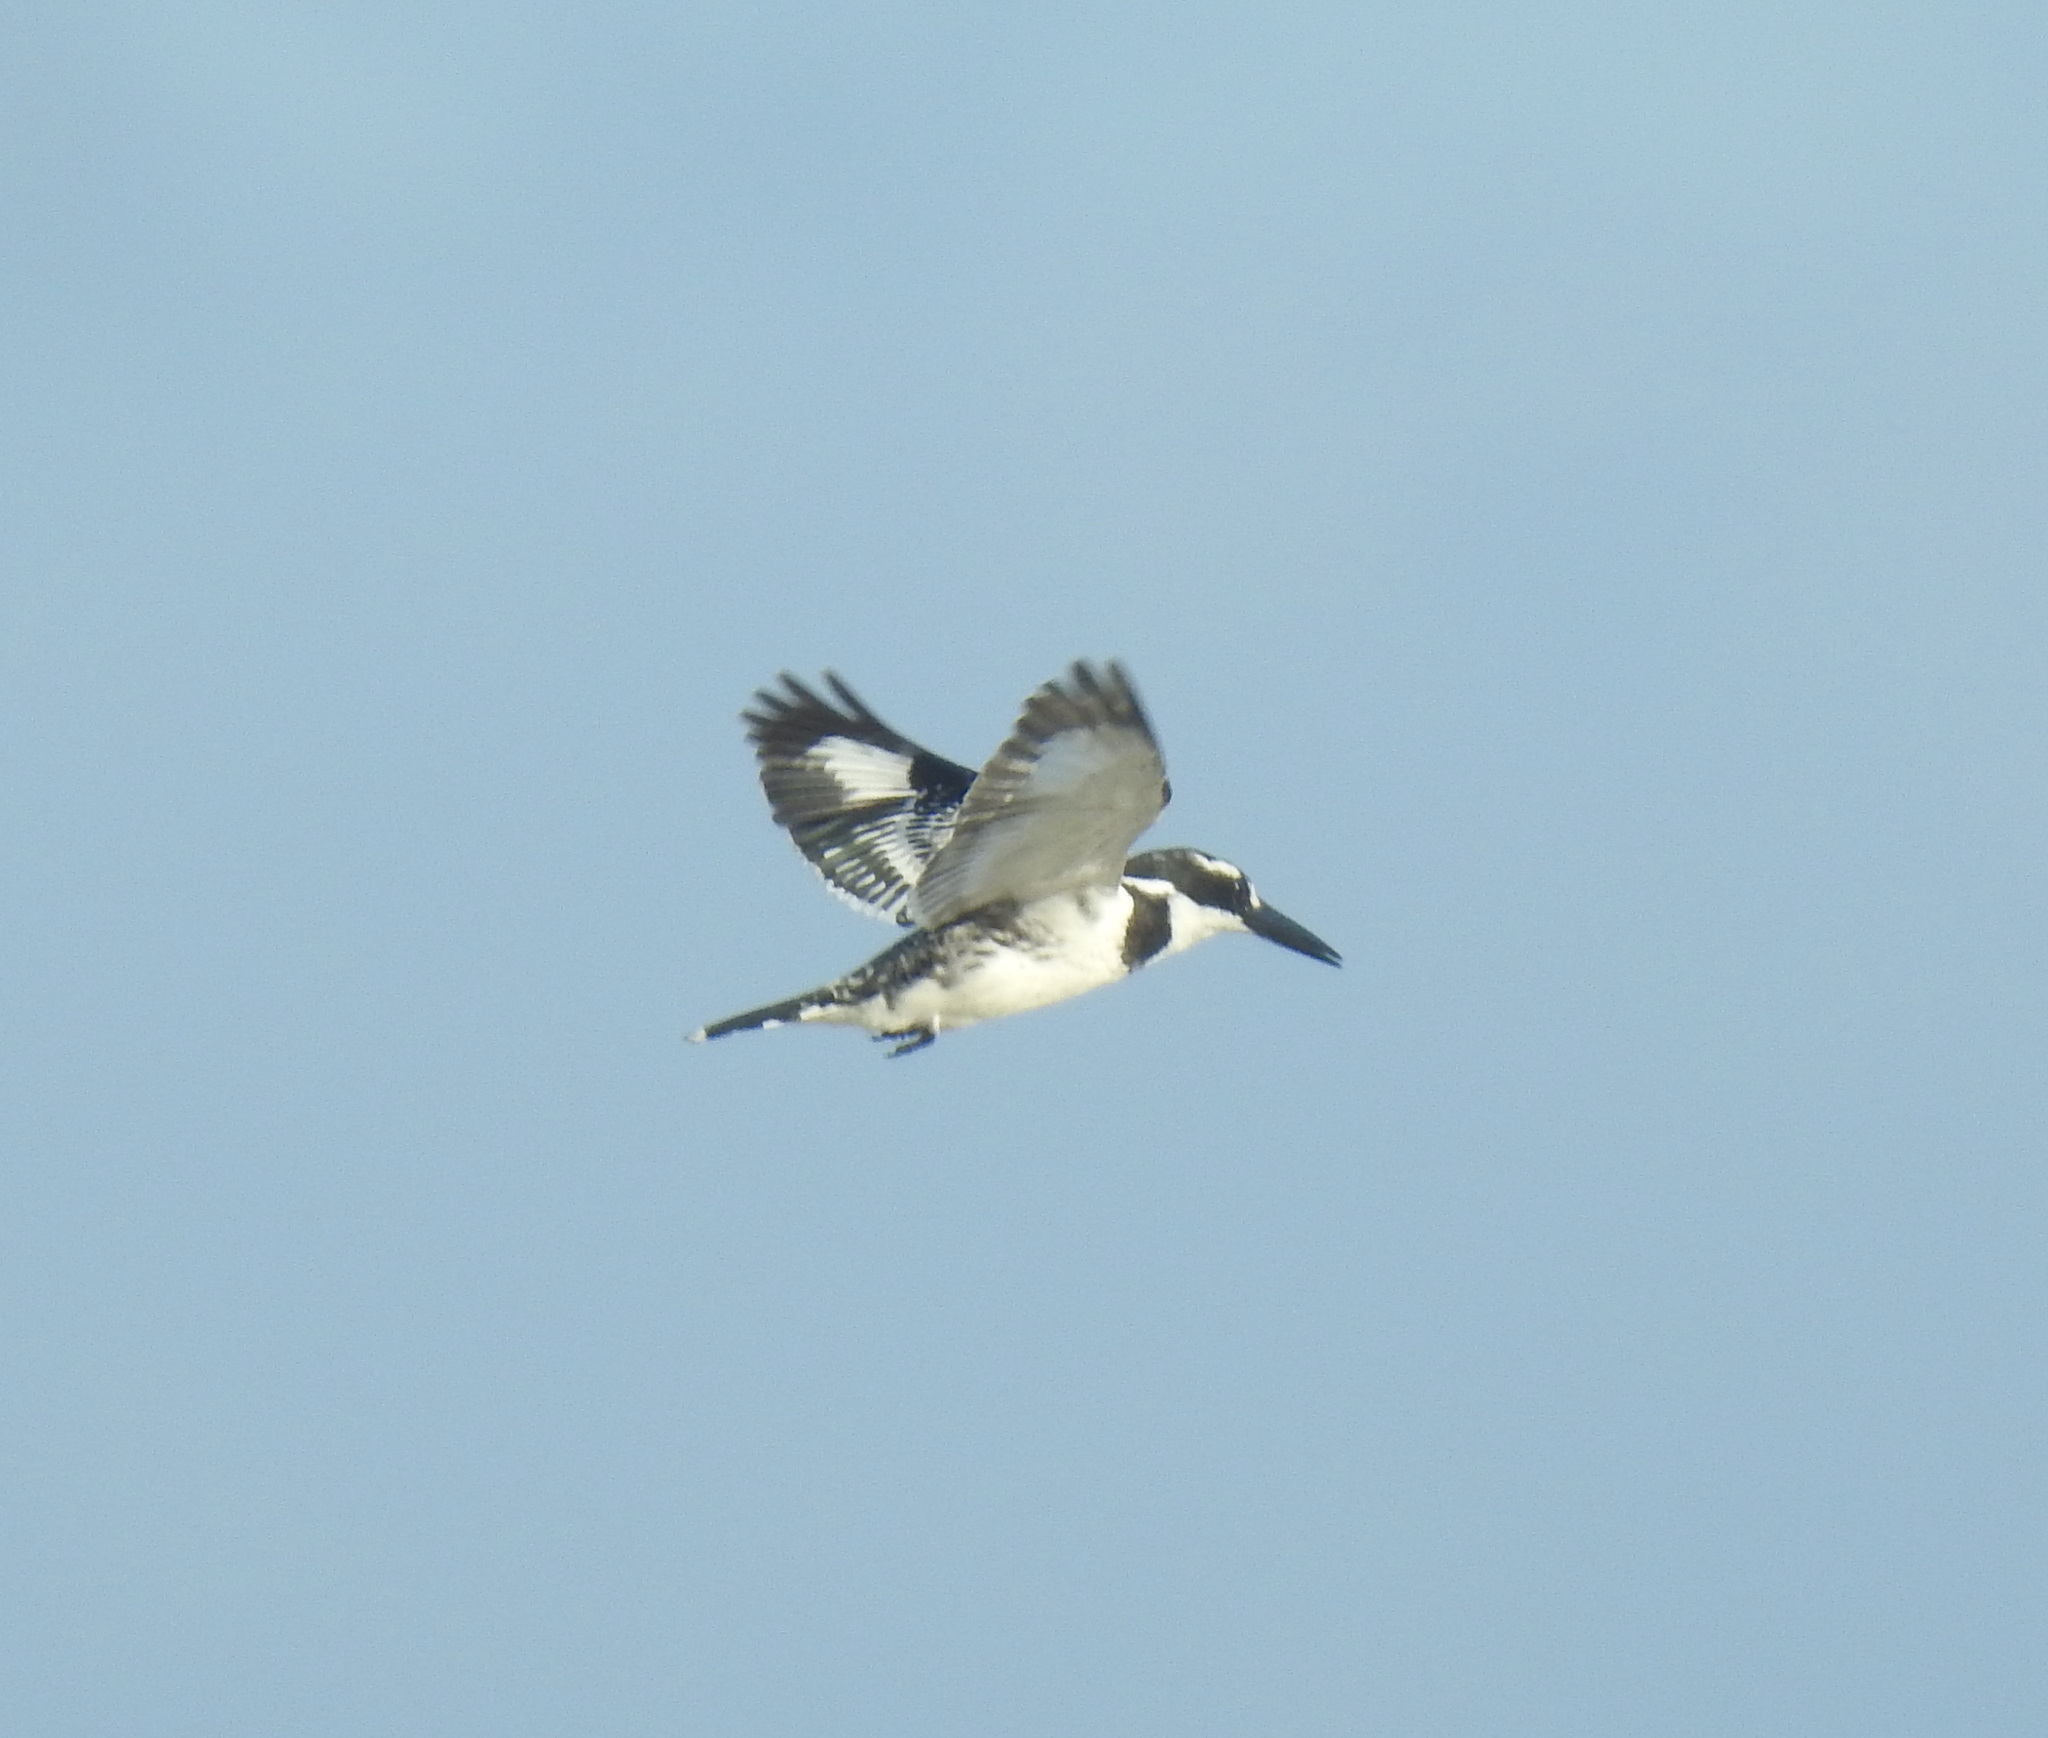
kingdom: Animalia
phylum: Chordata
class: Aves
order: Coraciiformes
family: Alcedinidae
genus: Ceryle
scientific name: Ceryle rudis
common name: Pied kingfisher
